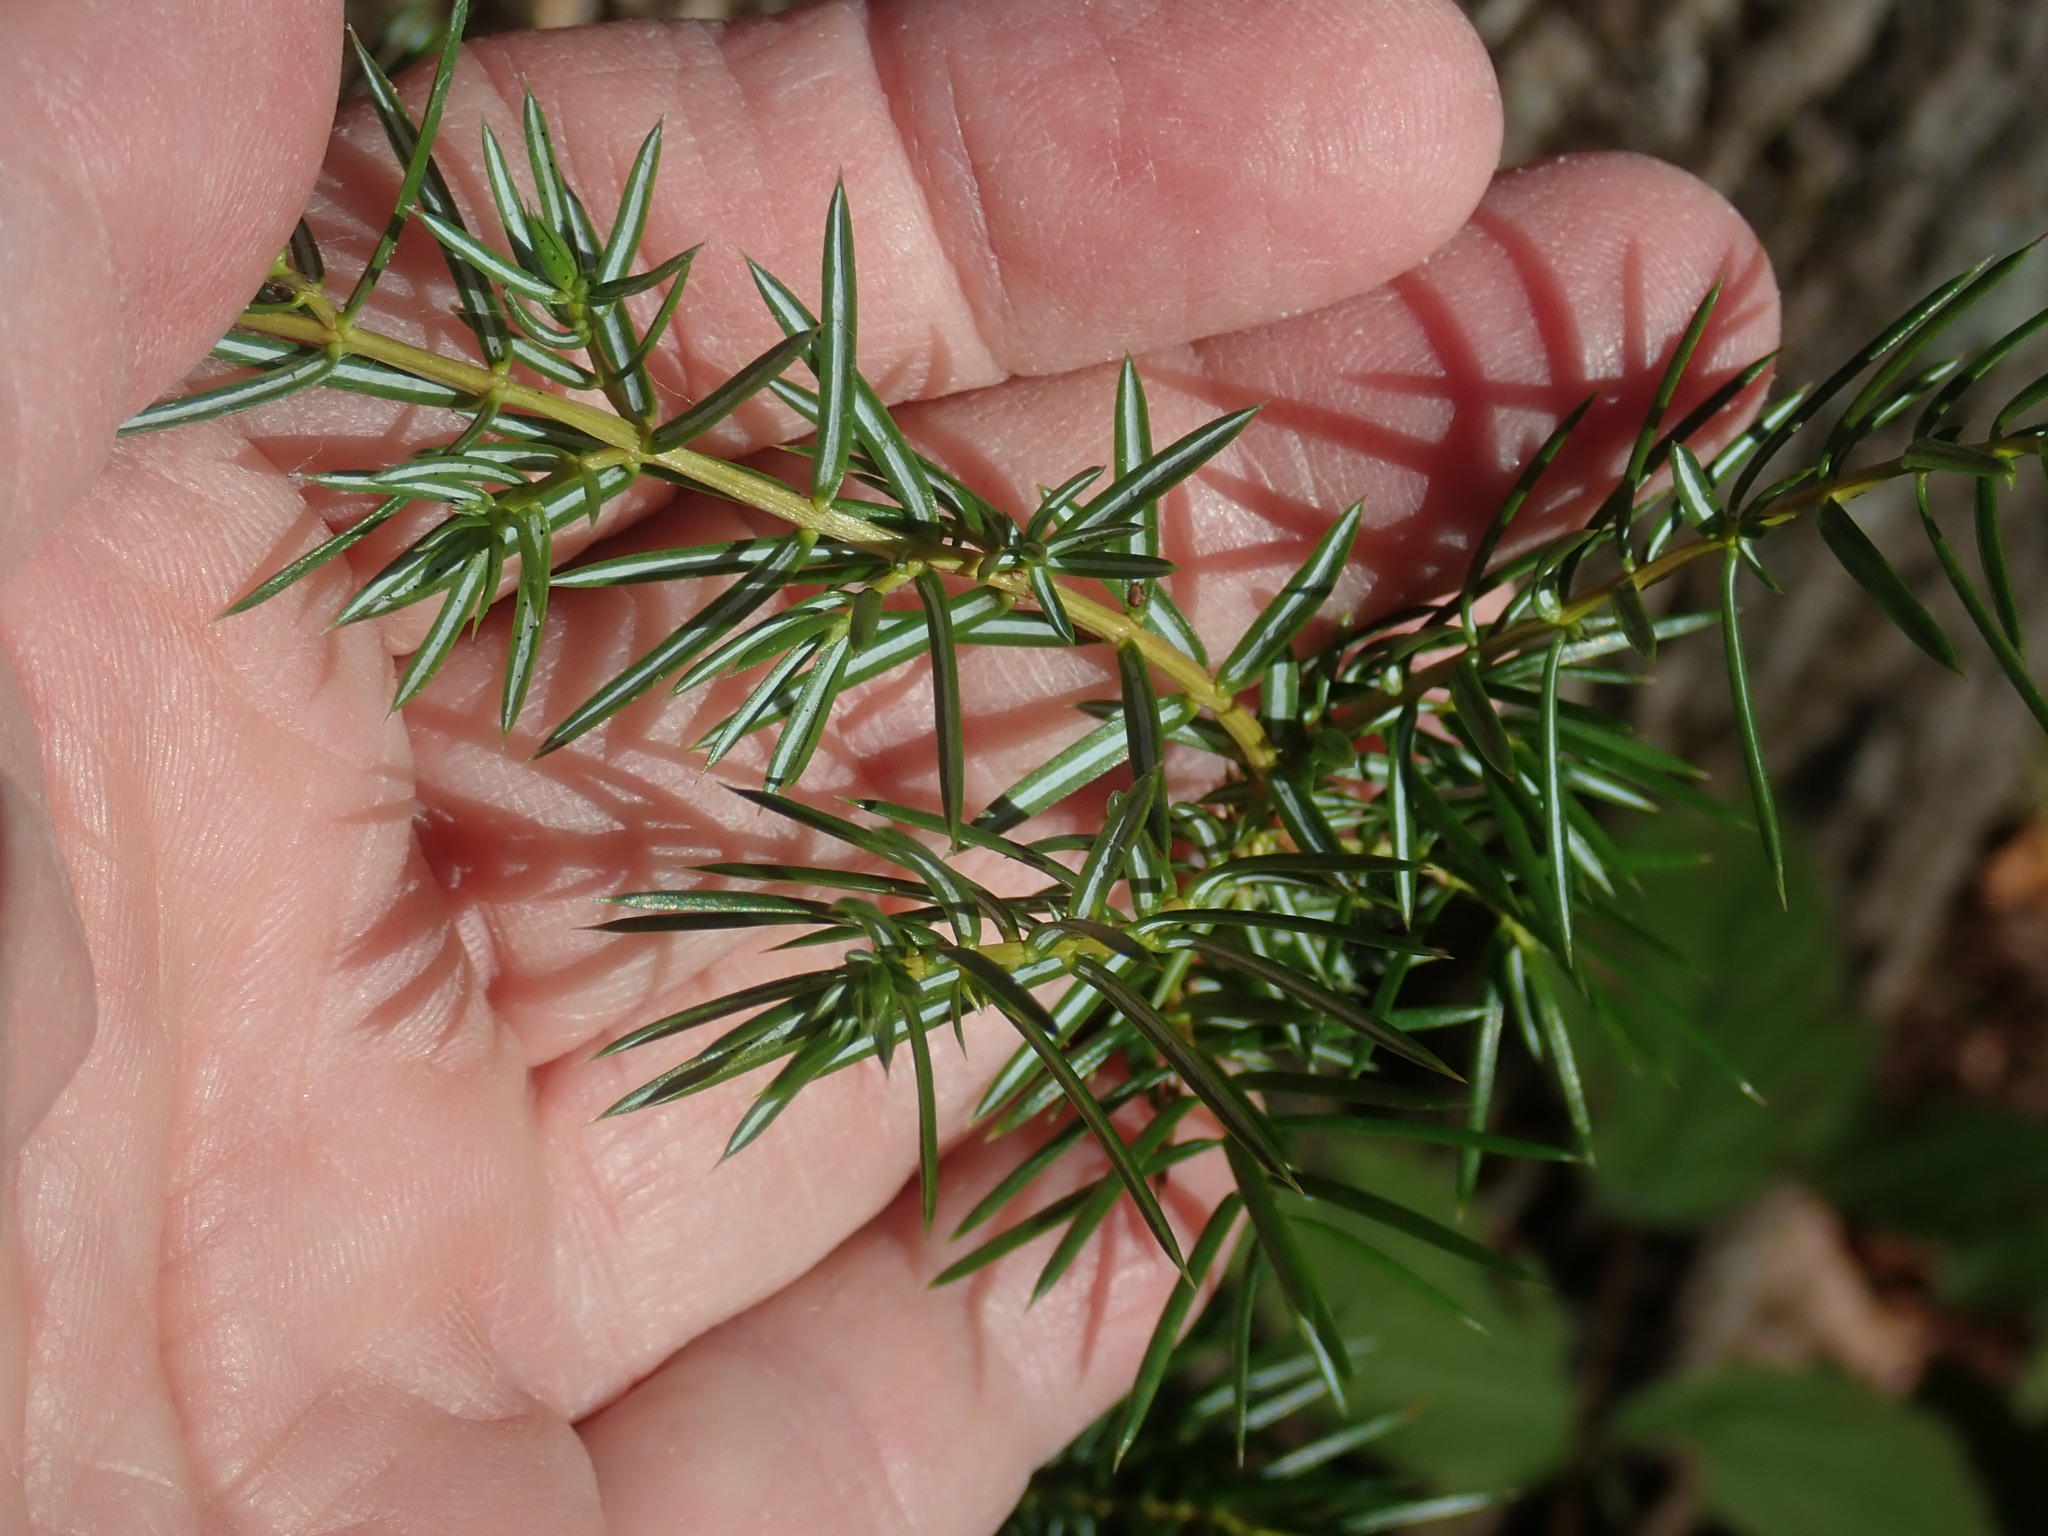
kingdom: Plantae
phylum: Tracheophyta
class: Pinopsida
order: Pinales
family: Cupressaceae
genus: Juniperus
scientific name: Juniperus communis
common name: Common juniper
